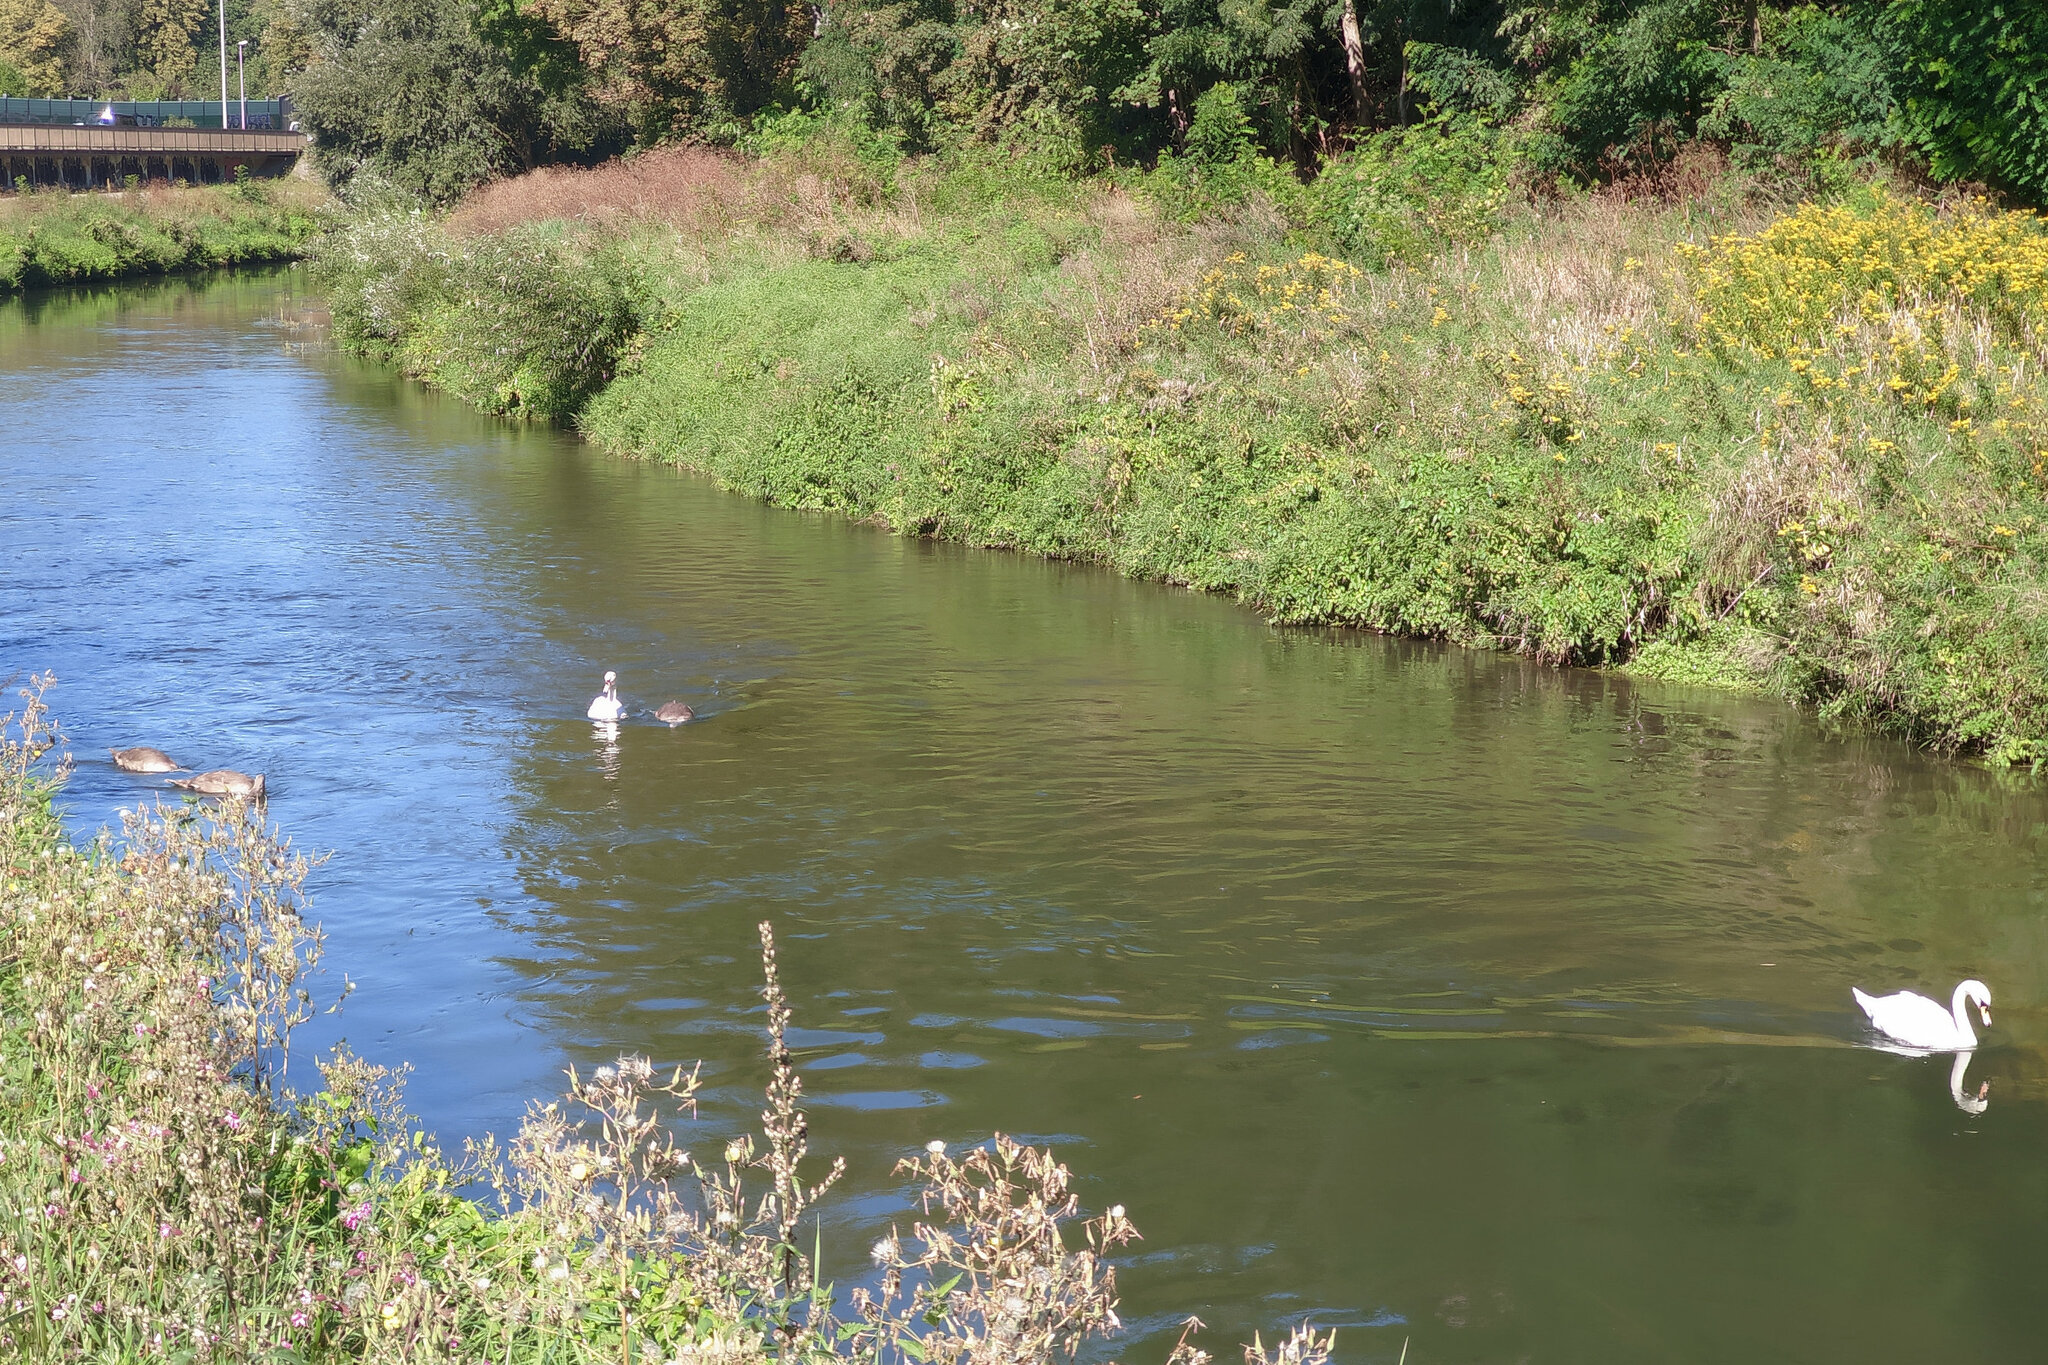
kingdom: Animalia
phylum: Chordata
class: Aves
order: Anseriformes
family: Anatidae
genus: Cygnus
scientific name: Cygnus olor
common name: Mute swan
